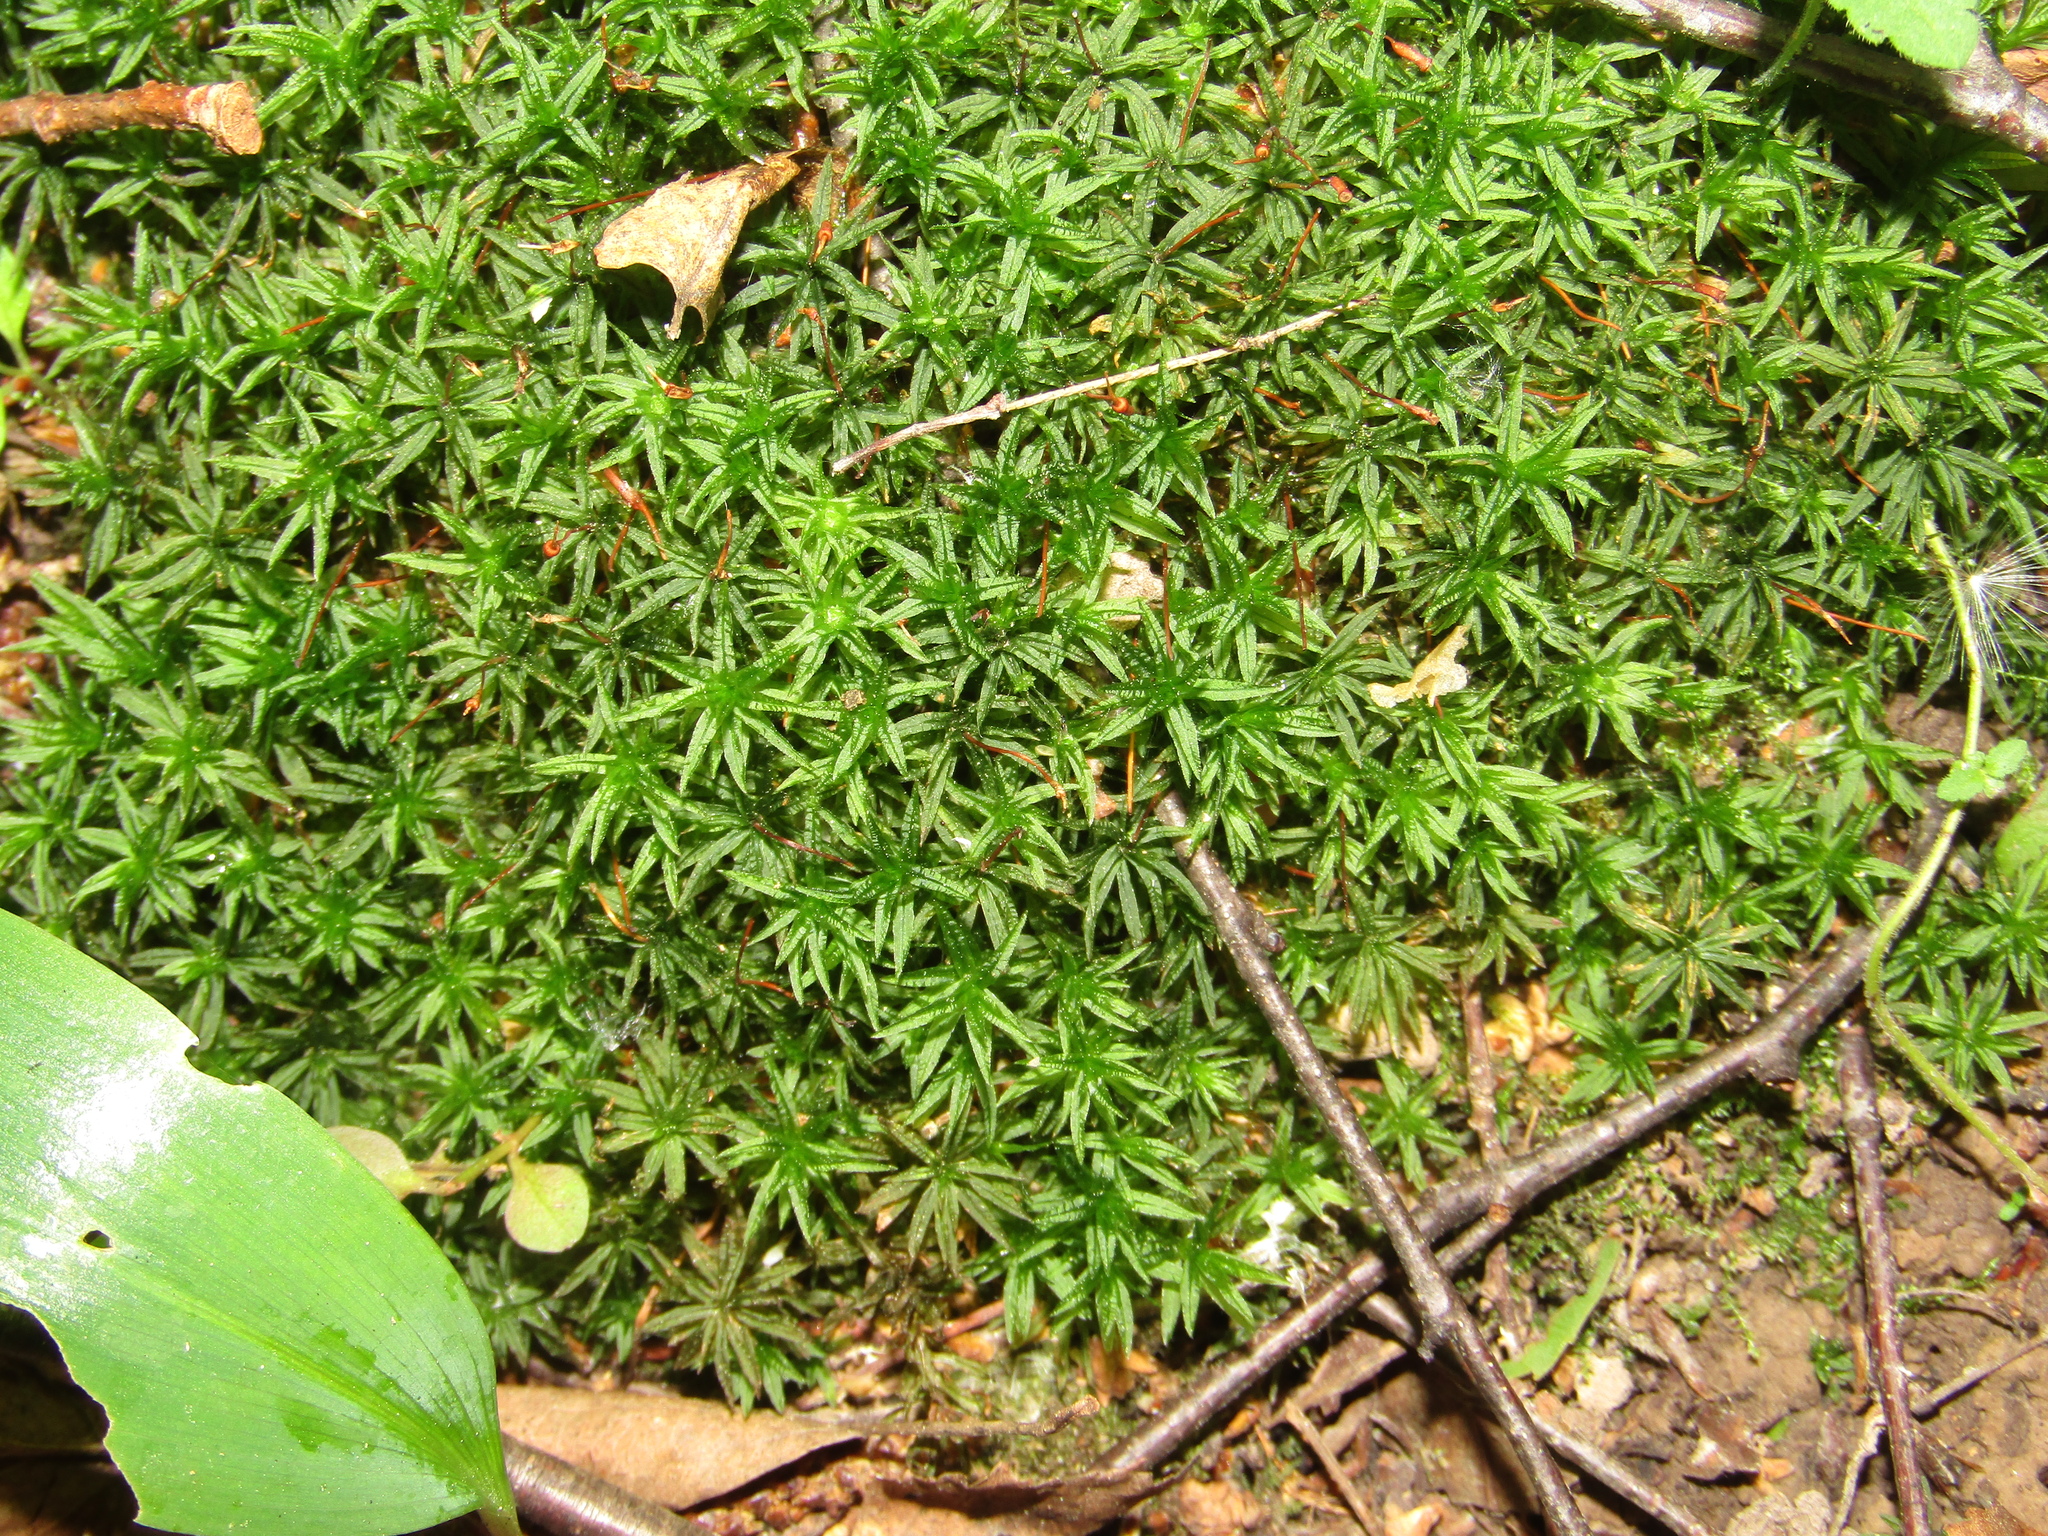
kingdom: Plantae
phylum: Bryophyta
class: Polytrichopsida
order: Polytrichales
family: Polytrichaceae
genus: Atrichum
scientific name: Atrichum undulatum
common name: Common smoothcap
